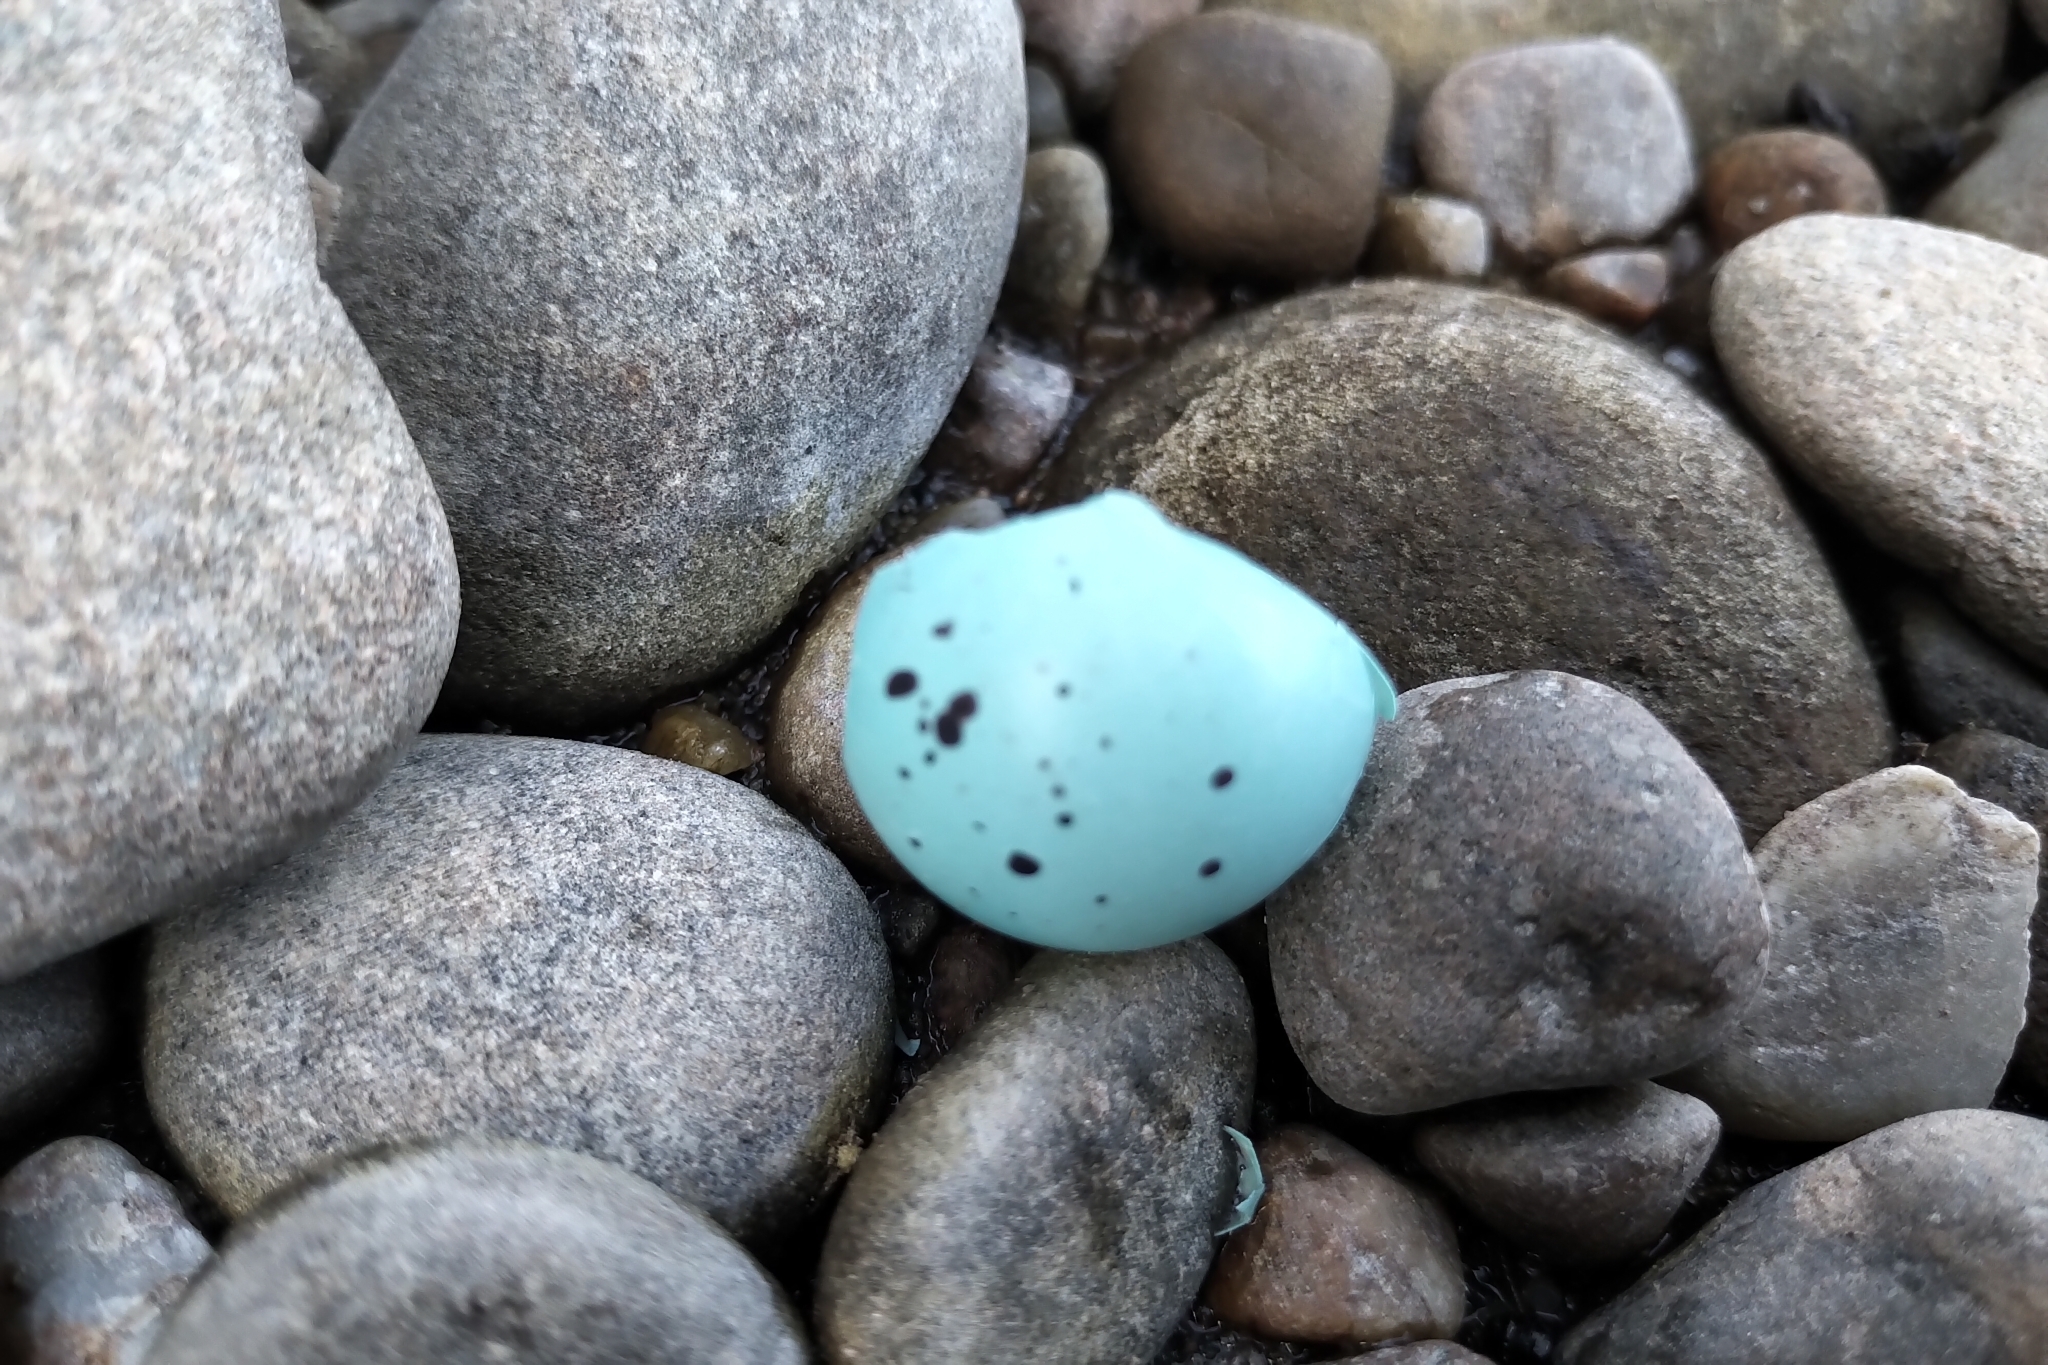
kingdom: Animalia
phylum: Chordata
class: Aves
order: Passeriformes
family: Turdidae
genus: Turdus
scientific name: Turdus philomelos
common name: Song thrush
